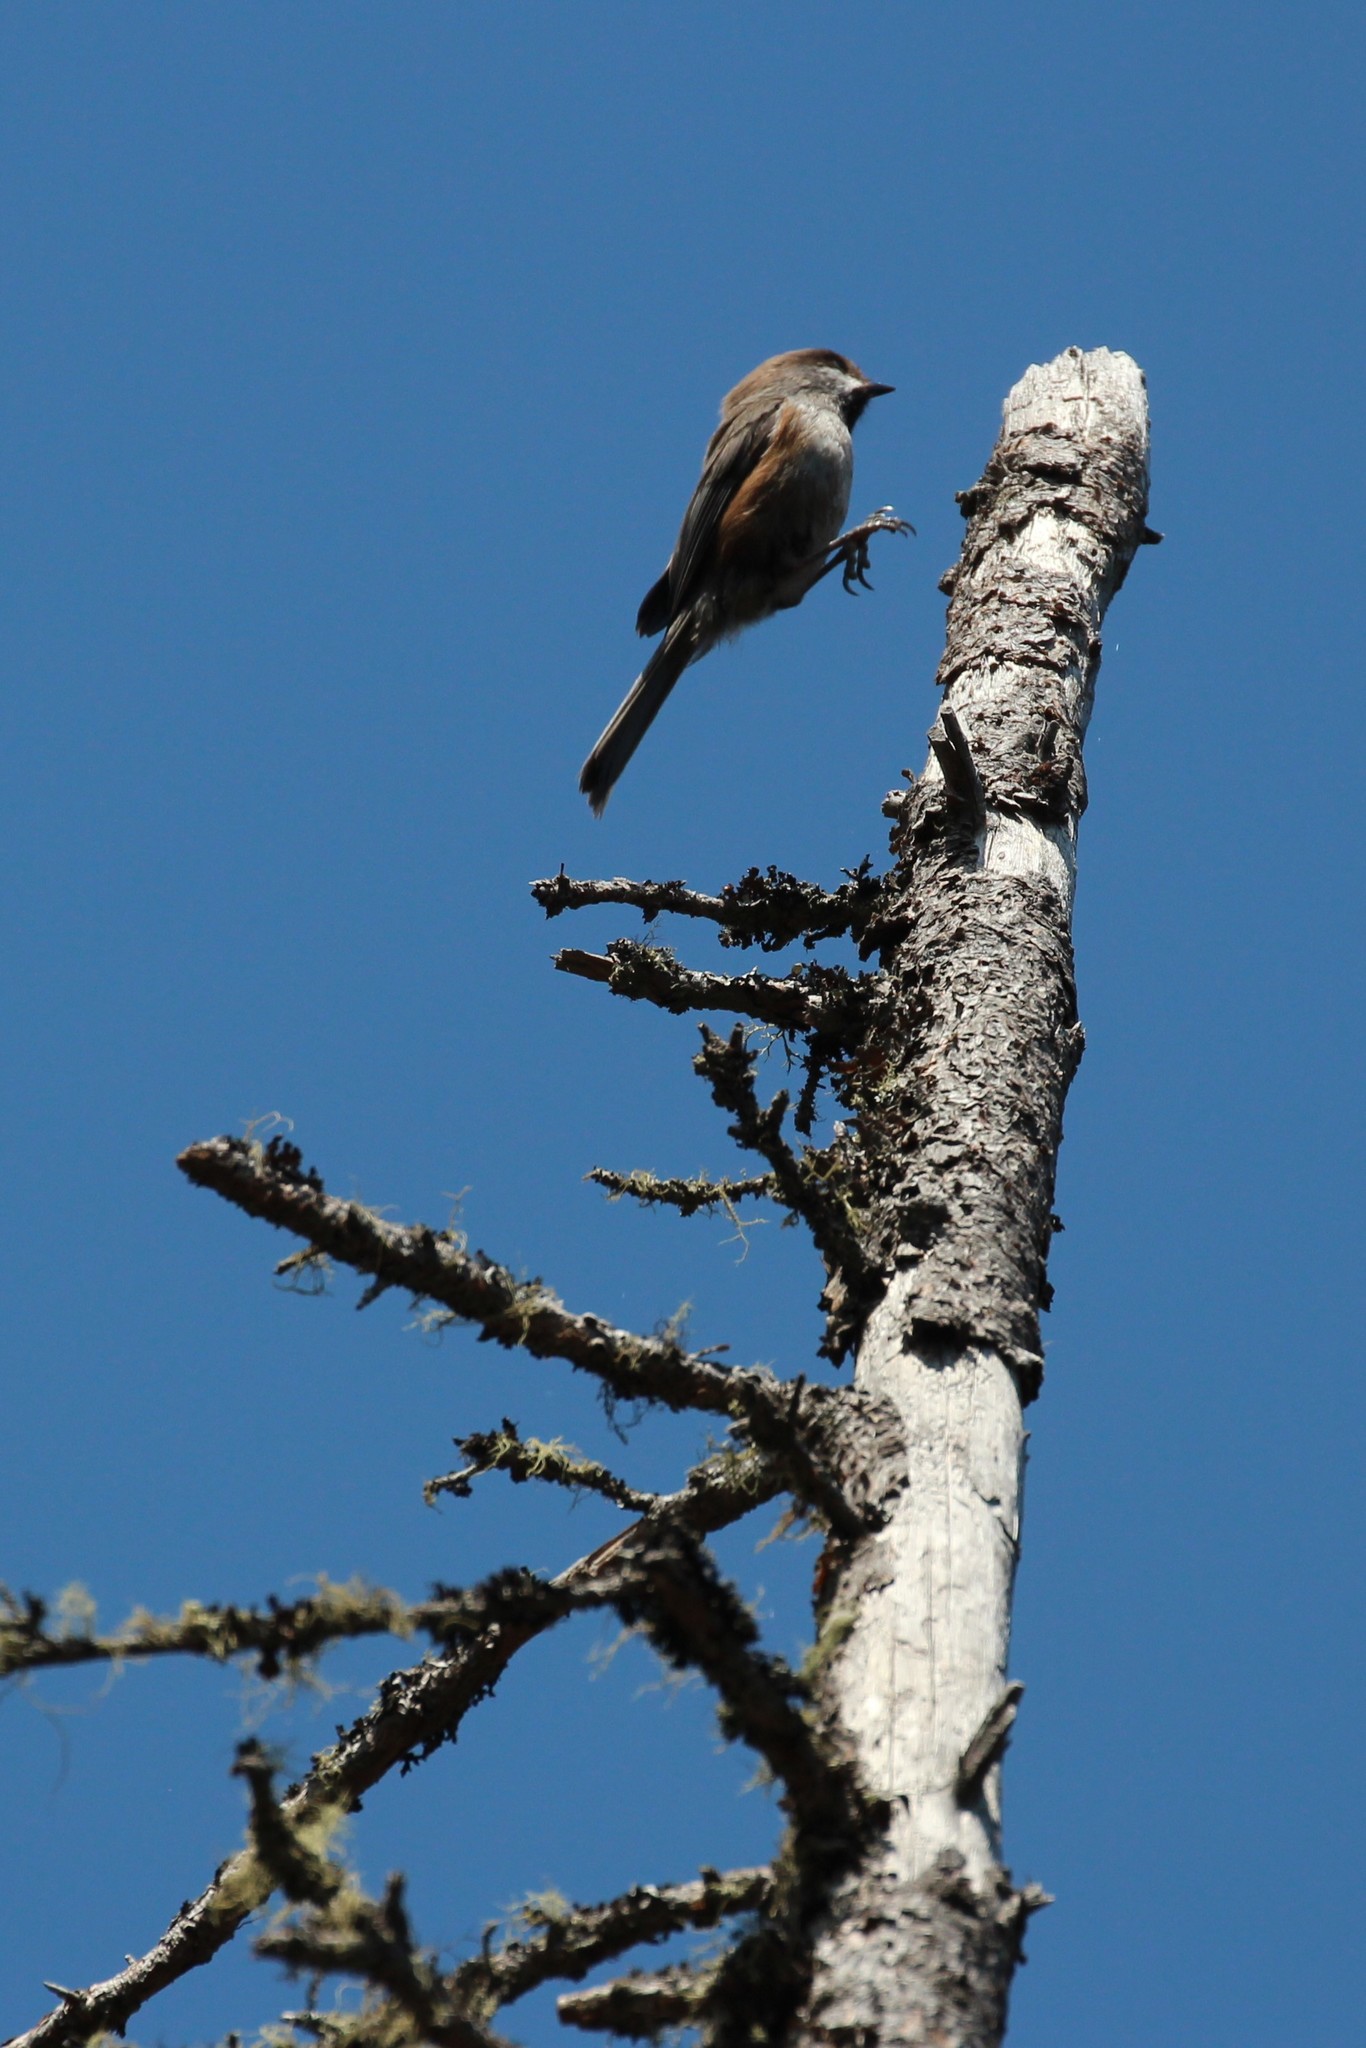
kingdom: Animalia
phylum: Chordata
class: Aves
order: Passeriformes
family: Paridae
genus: Poecile
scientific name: Poecile hudsonicus
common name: Boreal chickadee
